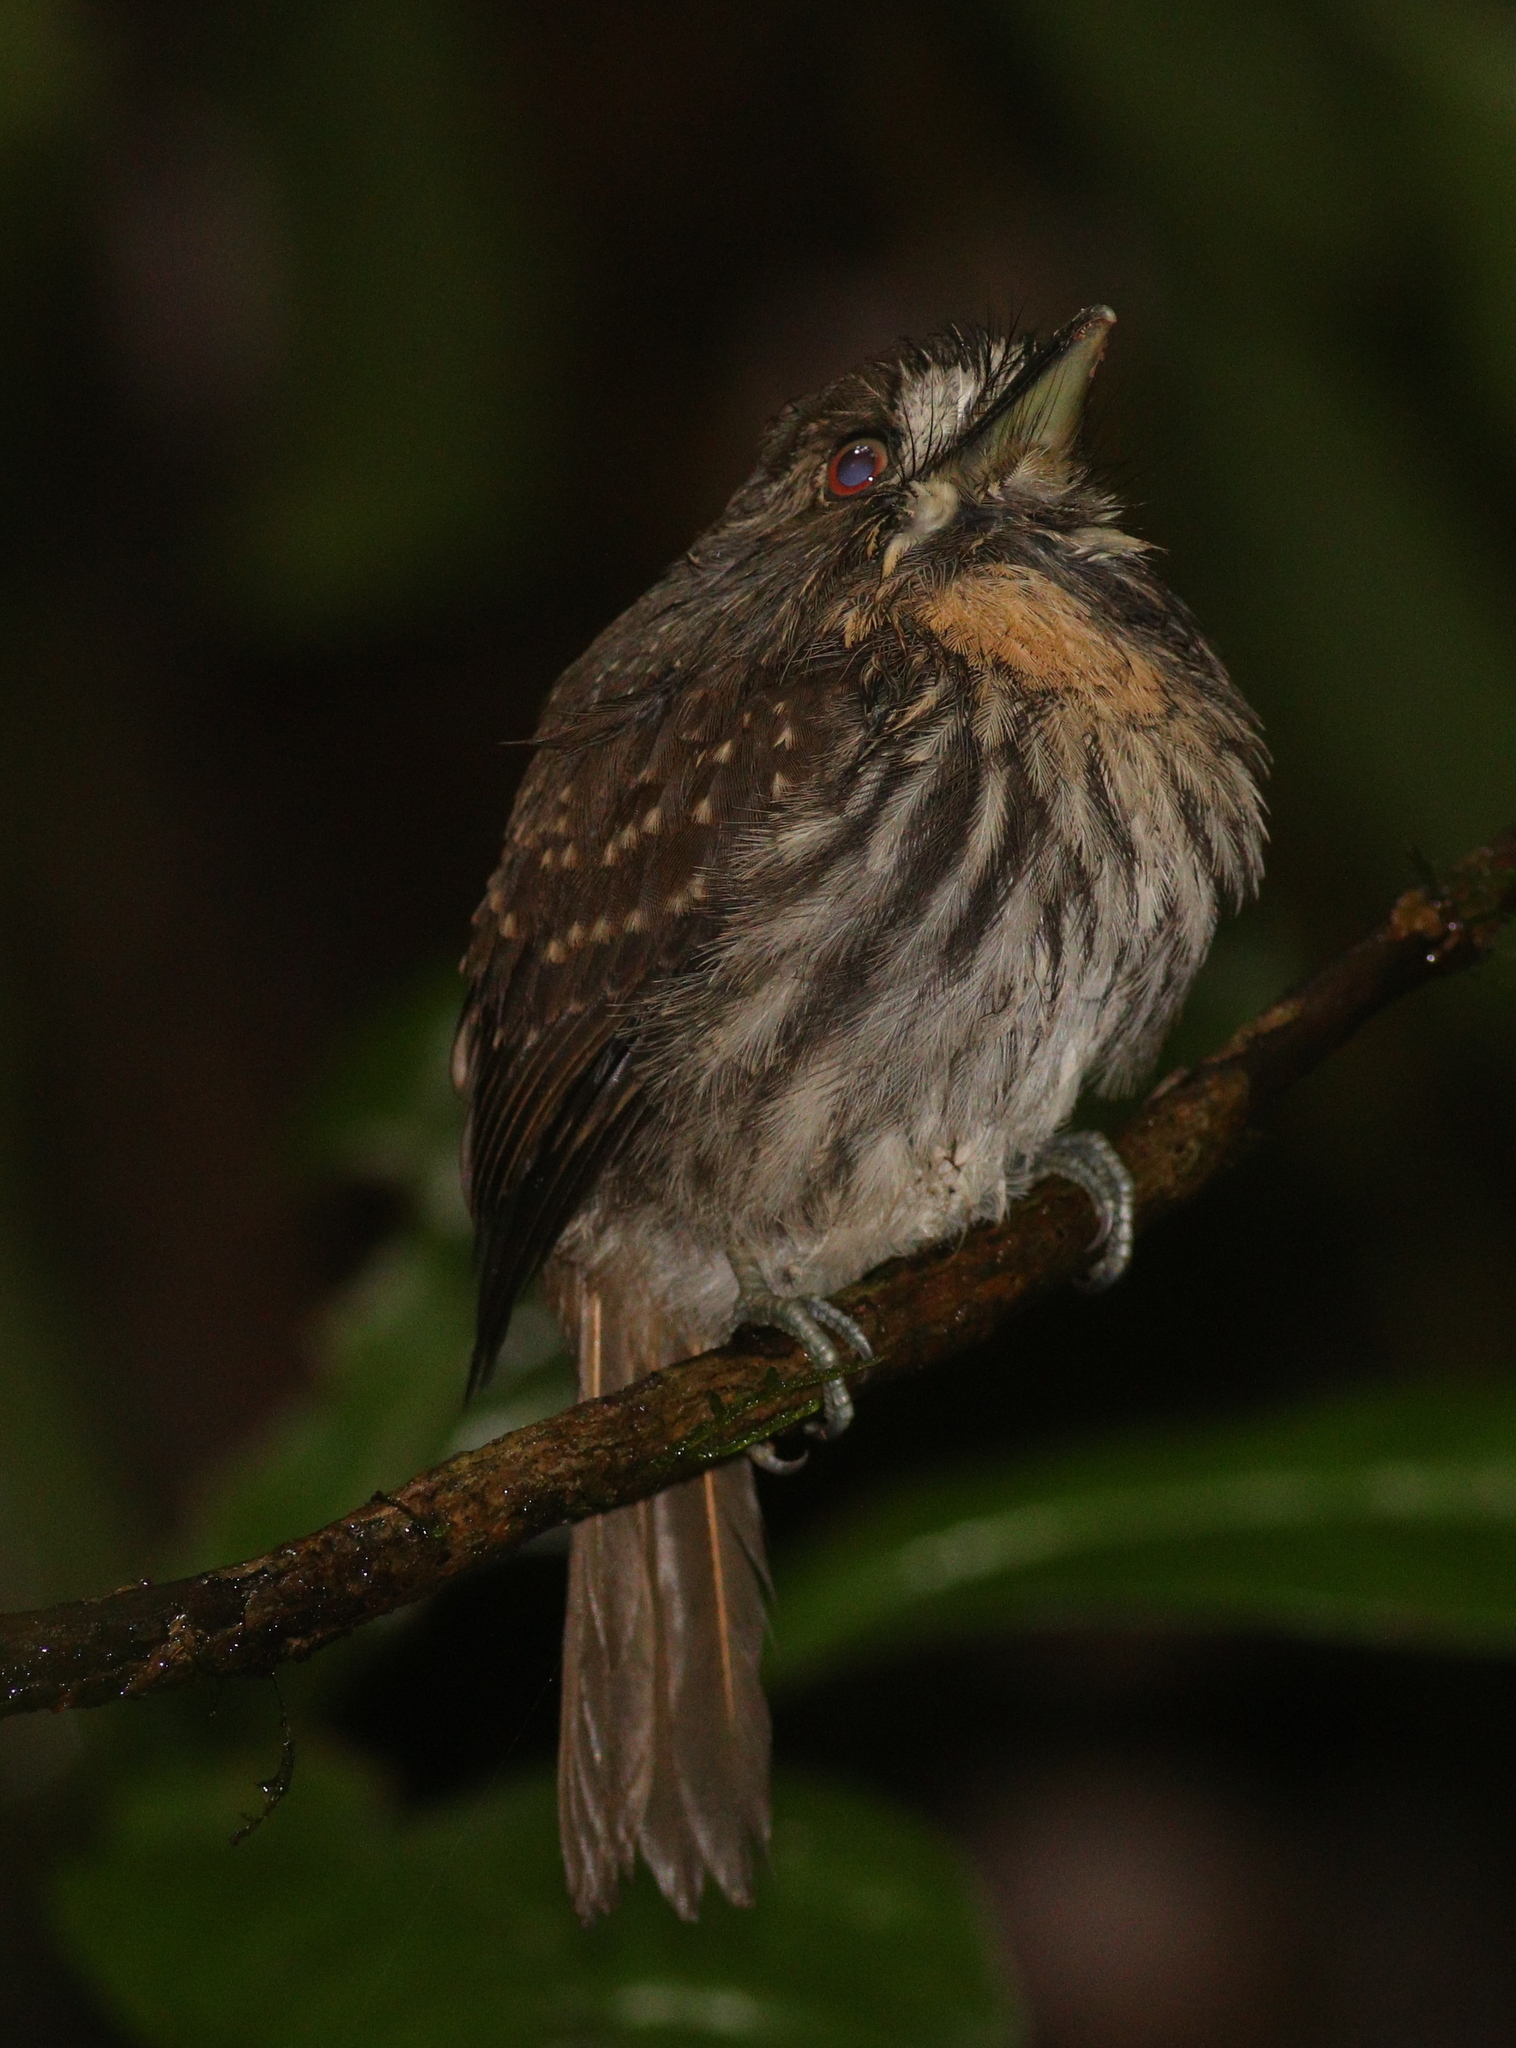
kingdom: Animalia
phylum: Chordata
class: Aves
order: Piciformes
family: Bucconidae
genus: Malacoptila
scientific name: Malacoptila panamensis
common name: White-whiskered puffbird
